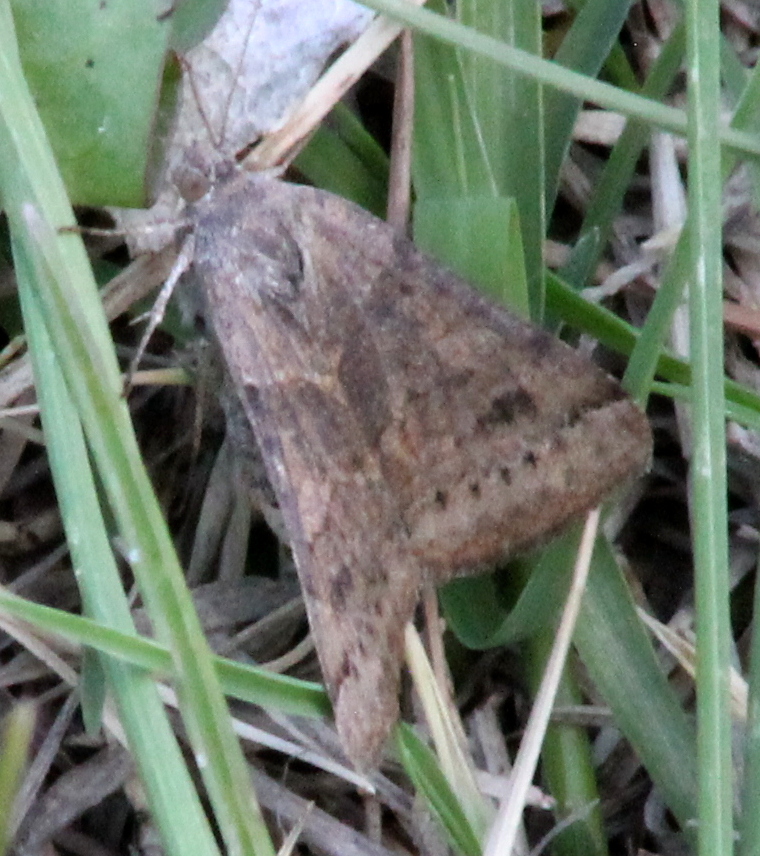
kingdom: Animalia
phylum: Arthropoda
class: Insecta
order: Lepidoptera
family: Erebidae
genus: Caenurgina
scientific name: Caenurgina erechtea
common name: Forage looper moth
